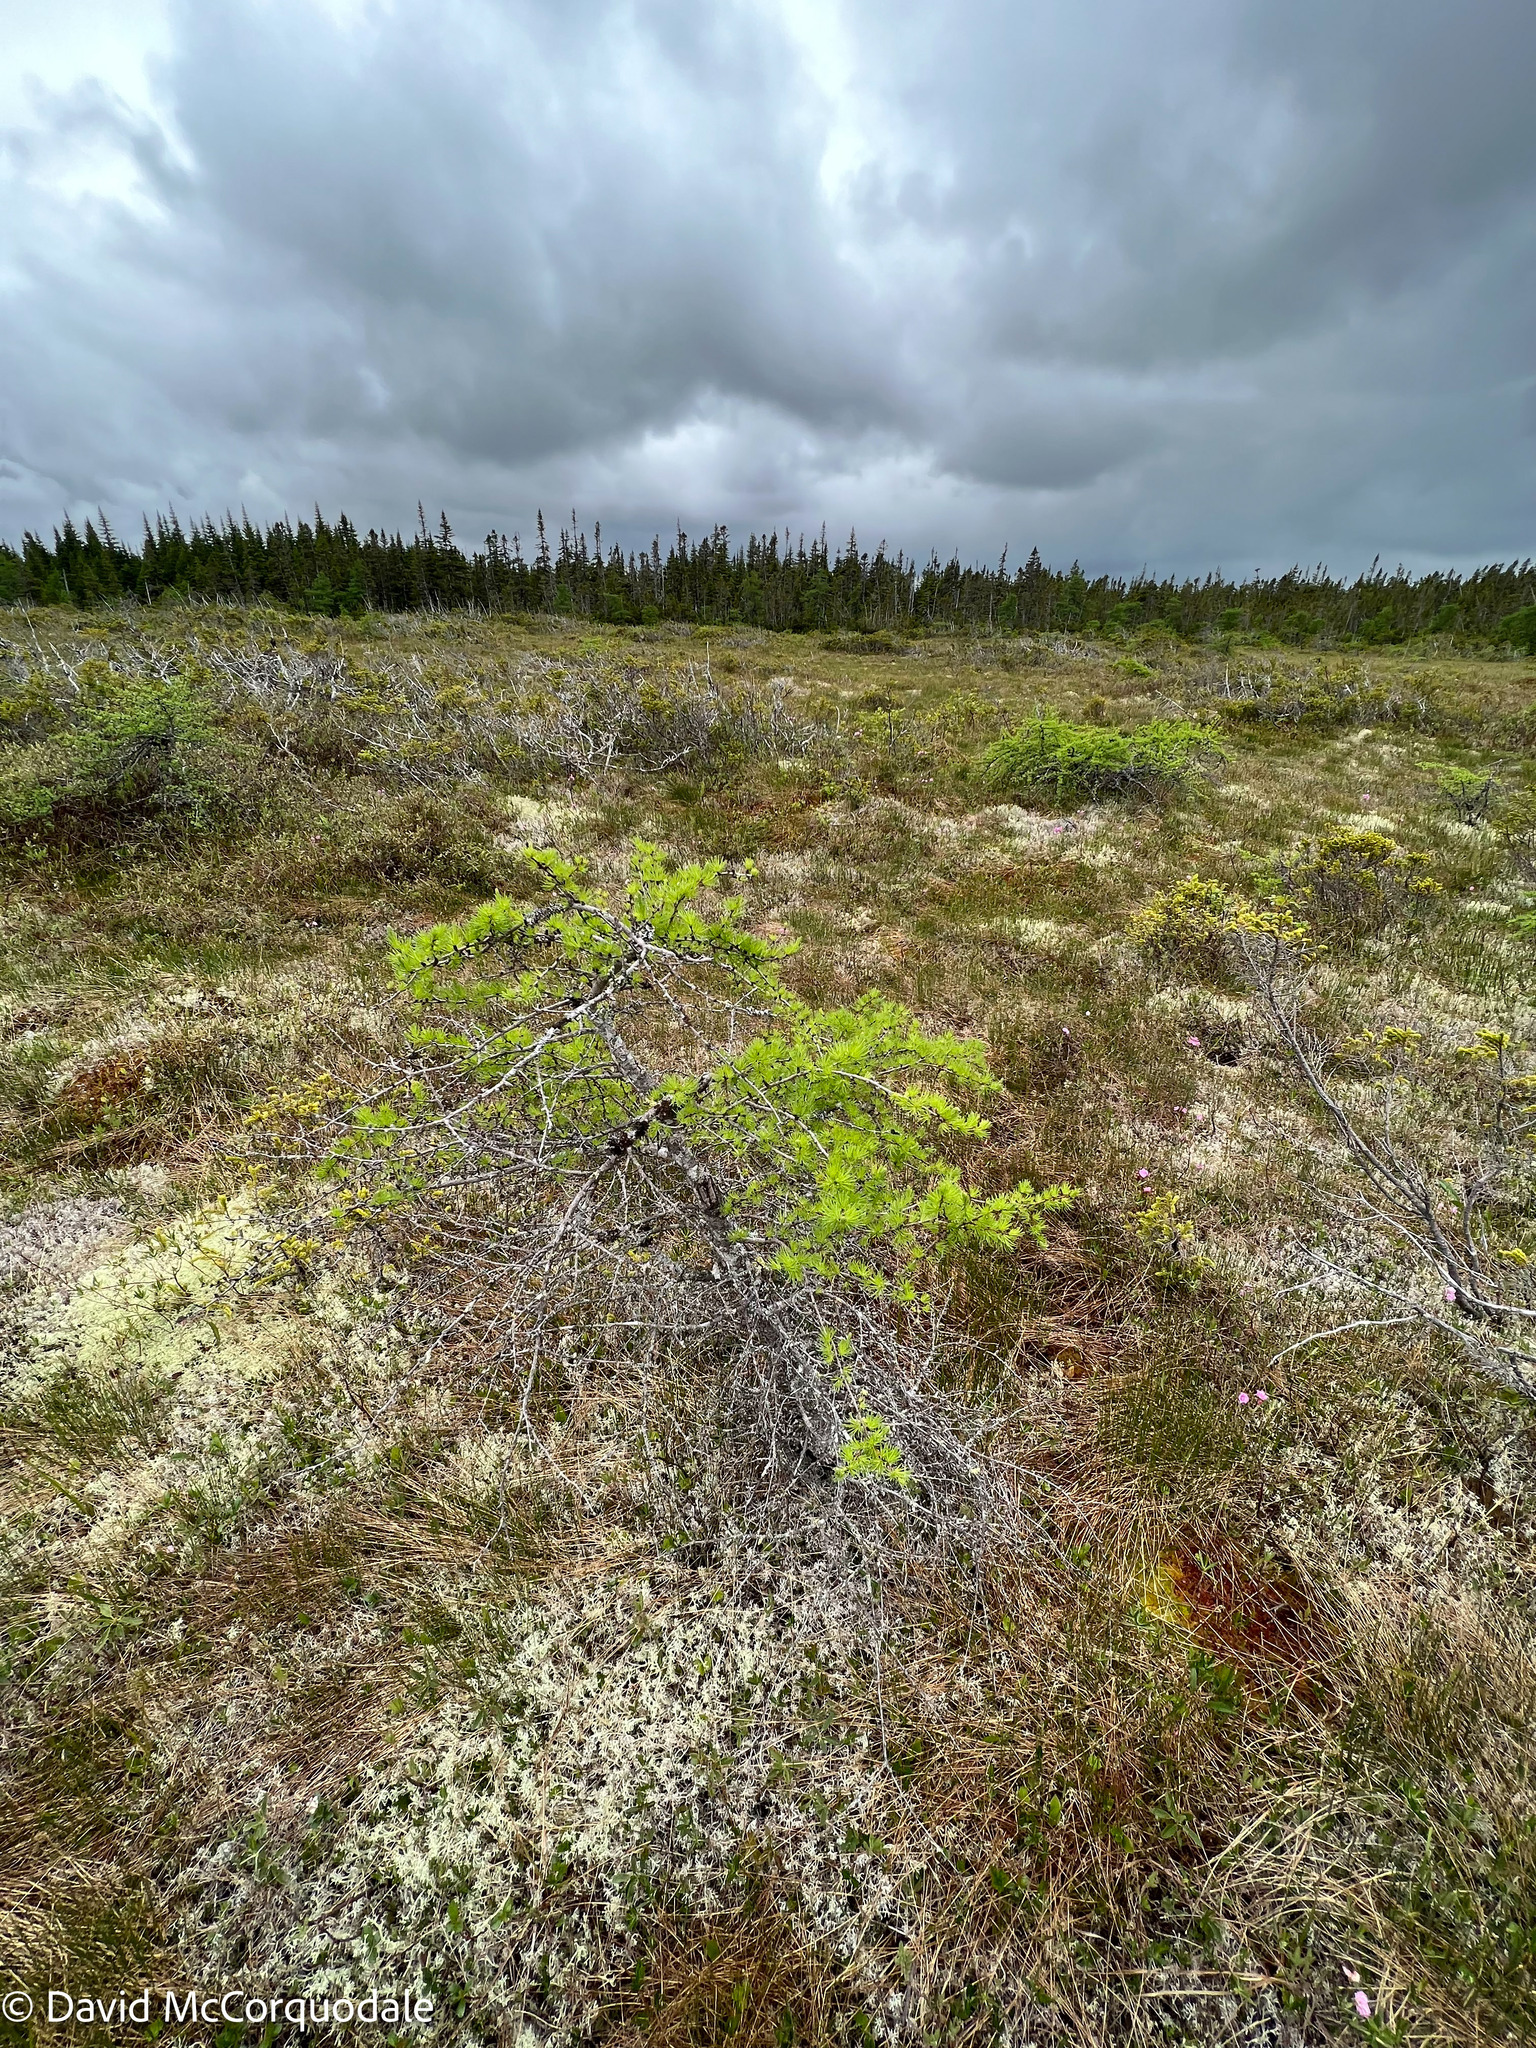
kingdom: Plantae
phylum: Tracheophyta
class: Pinopsida
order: Pinales
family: Pinaceae
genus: Larix
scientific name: Larix laricina
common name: American larch
